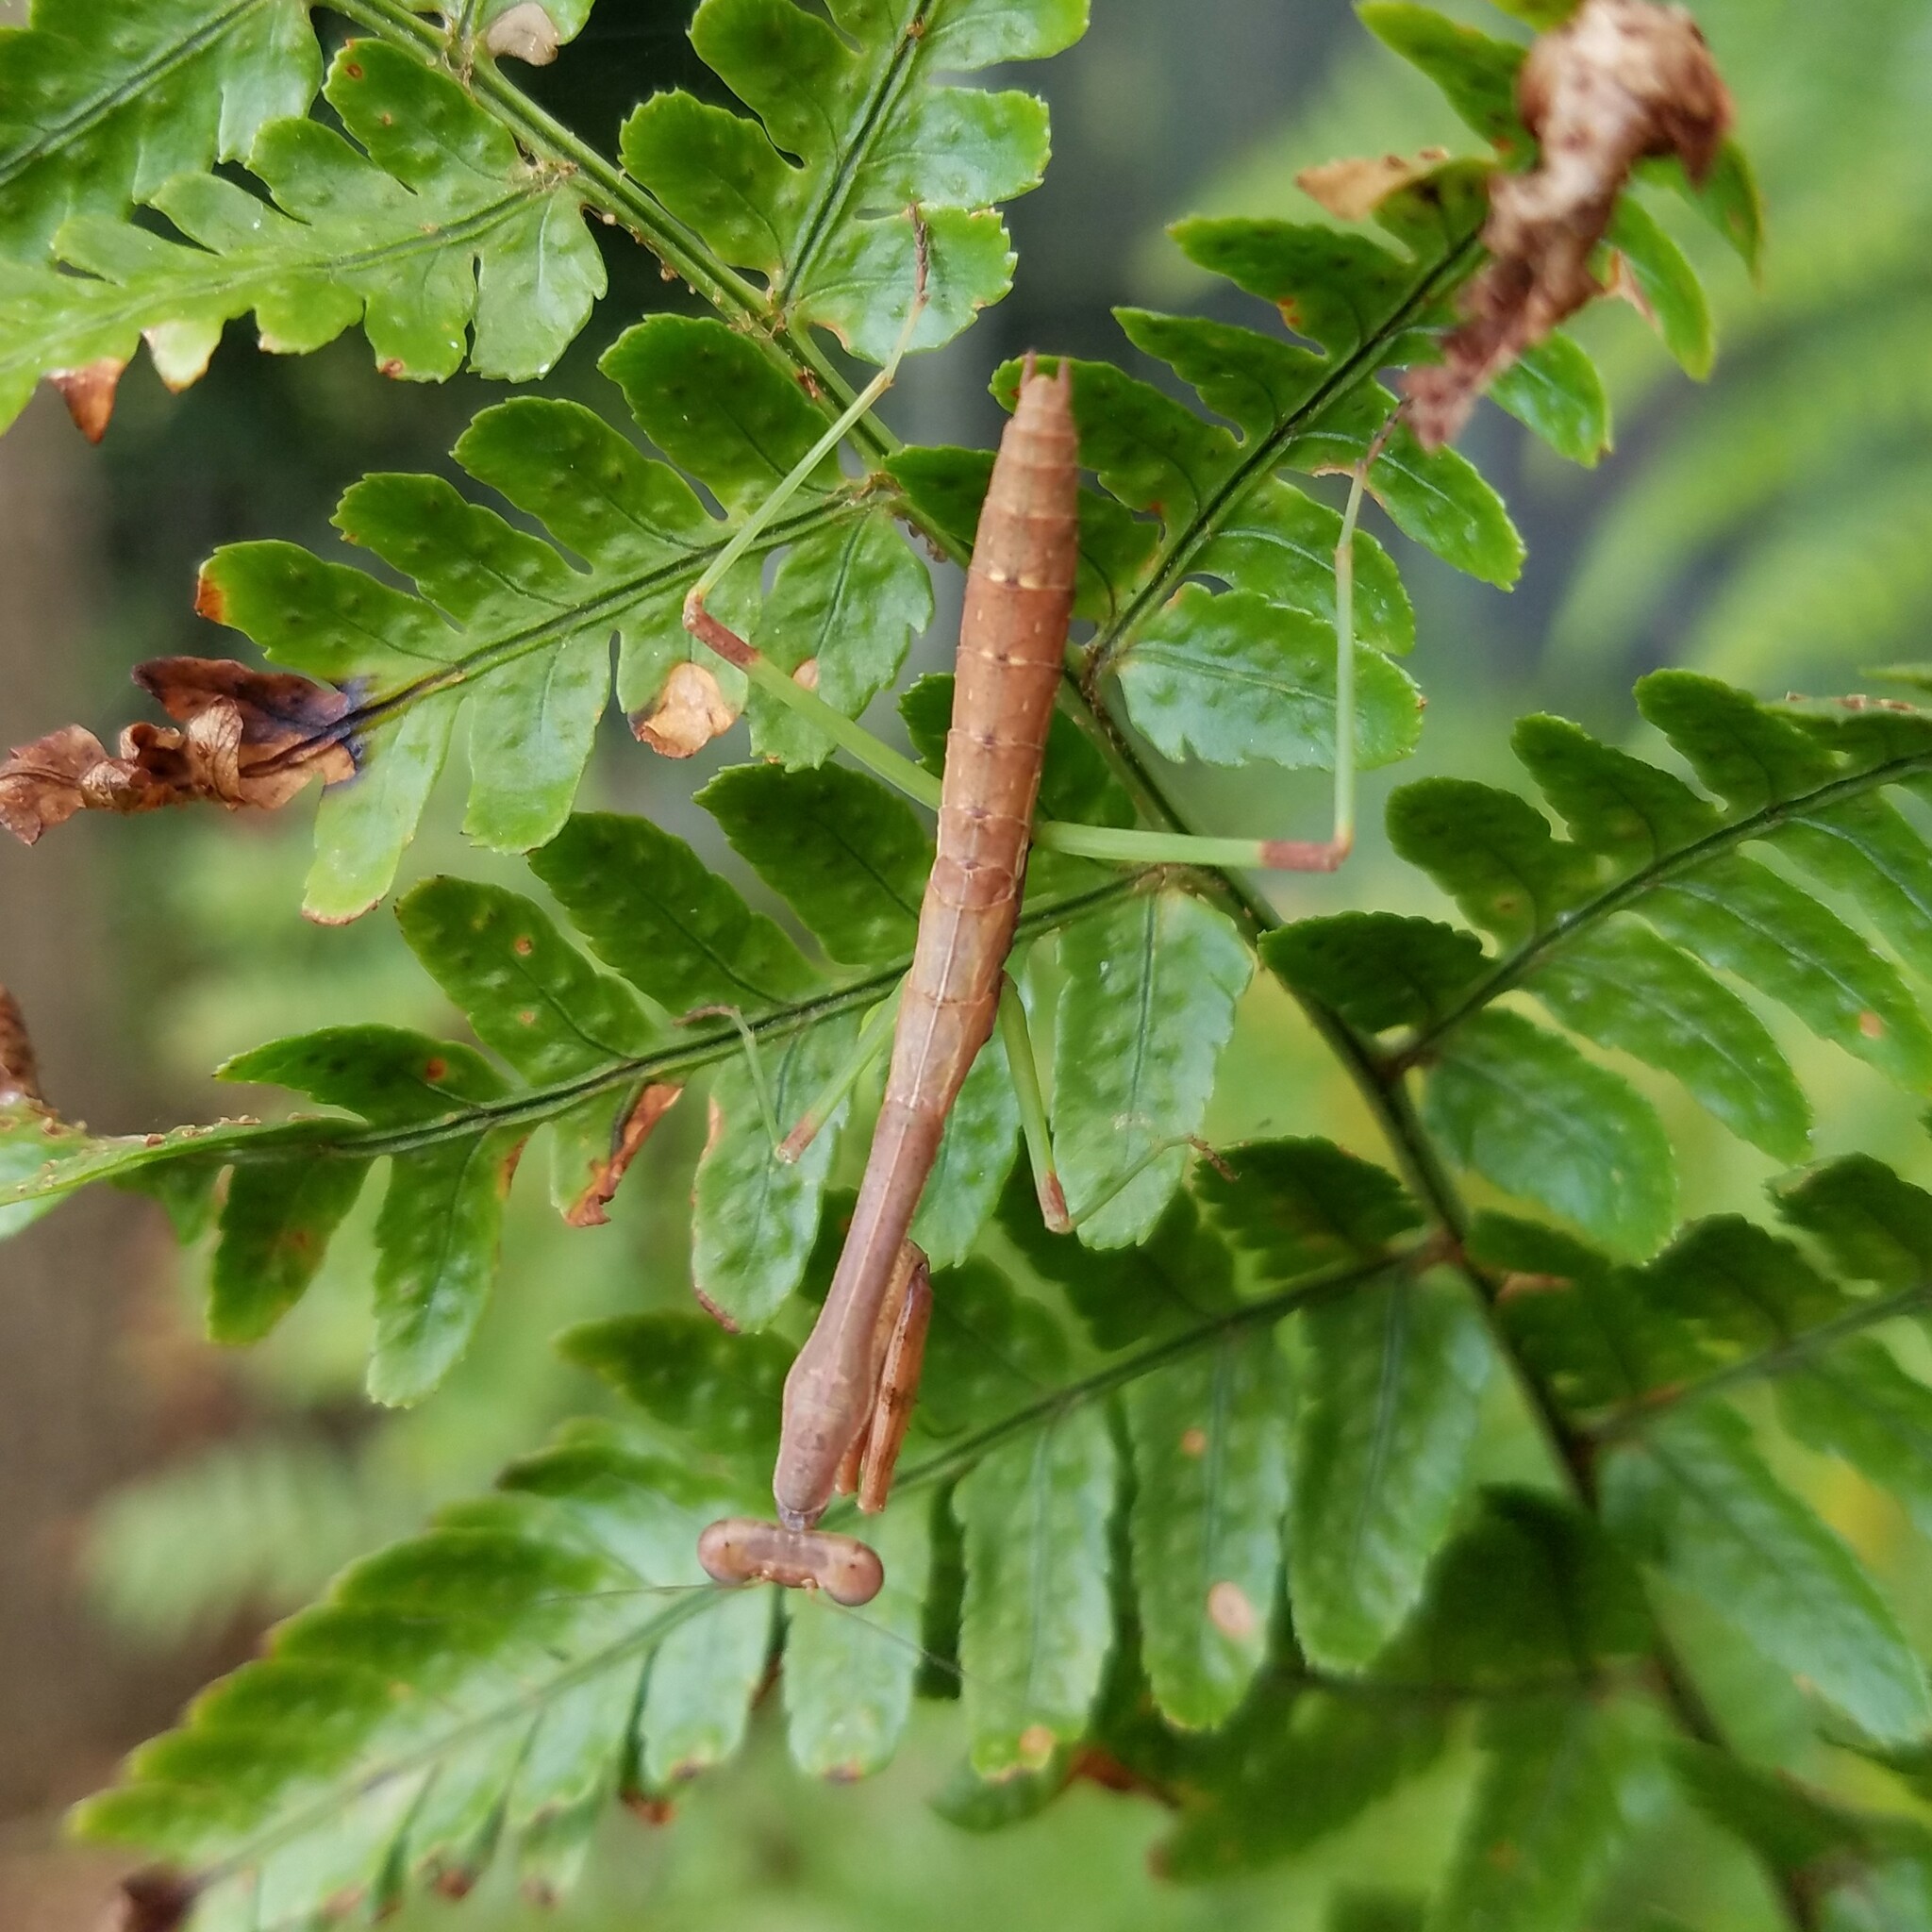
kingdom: Animalia
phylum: Arthropoda
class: Insecta
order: Mantodea
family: Mantidae
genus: Stagmomantis
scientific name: Stagmomantis carolina
